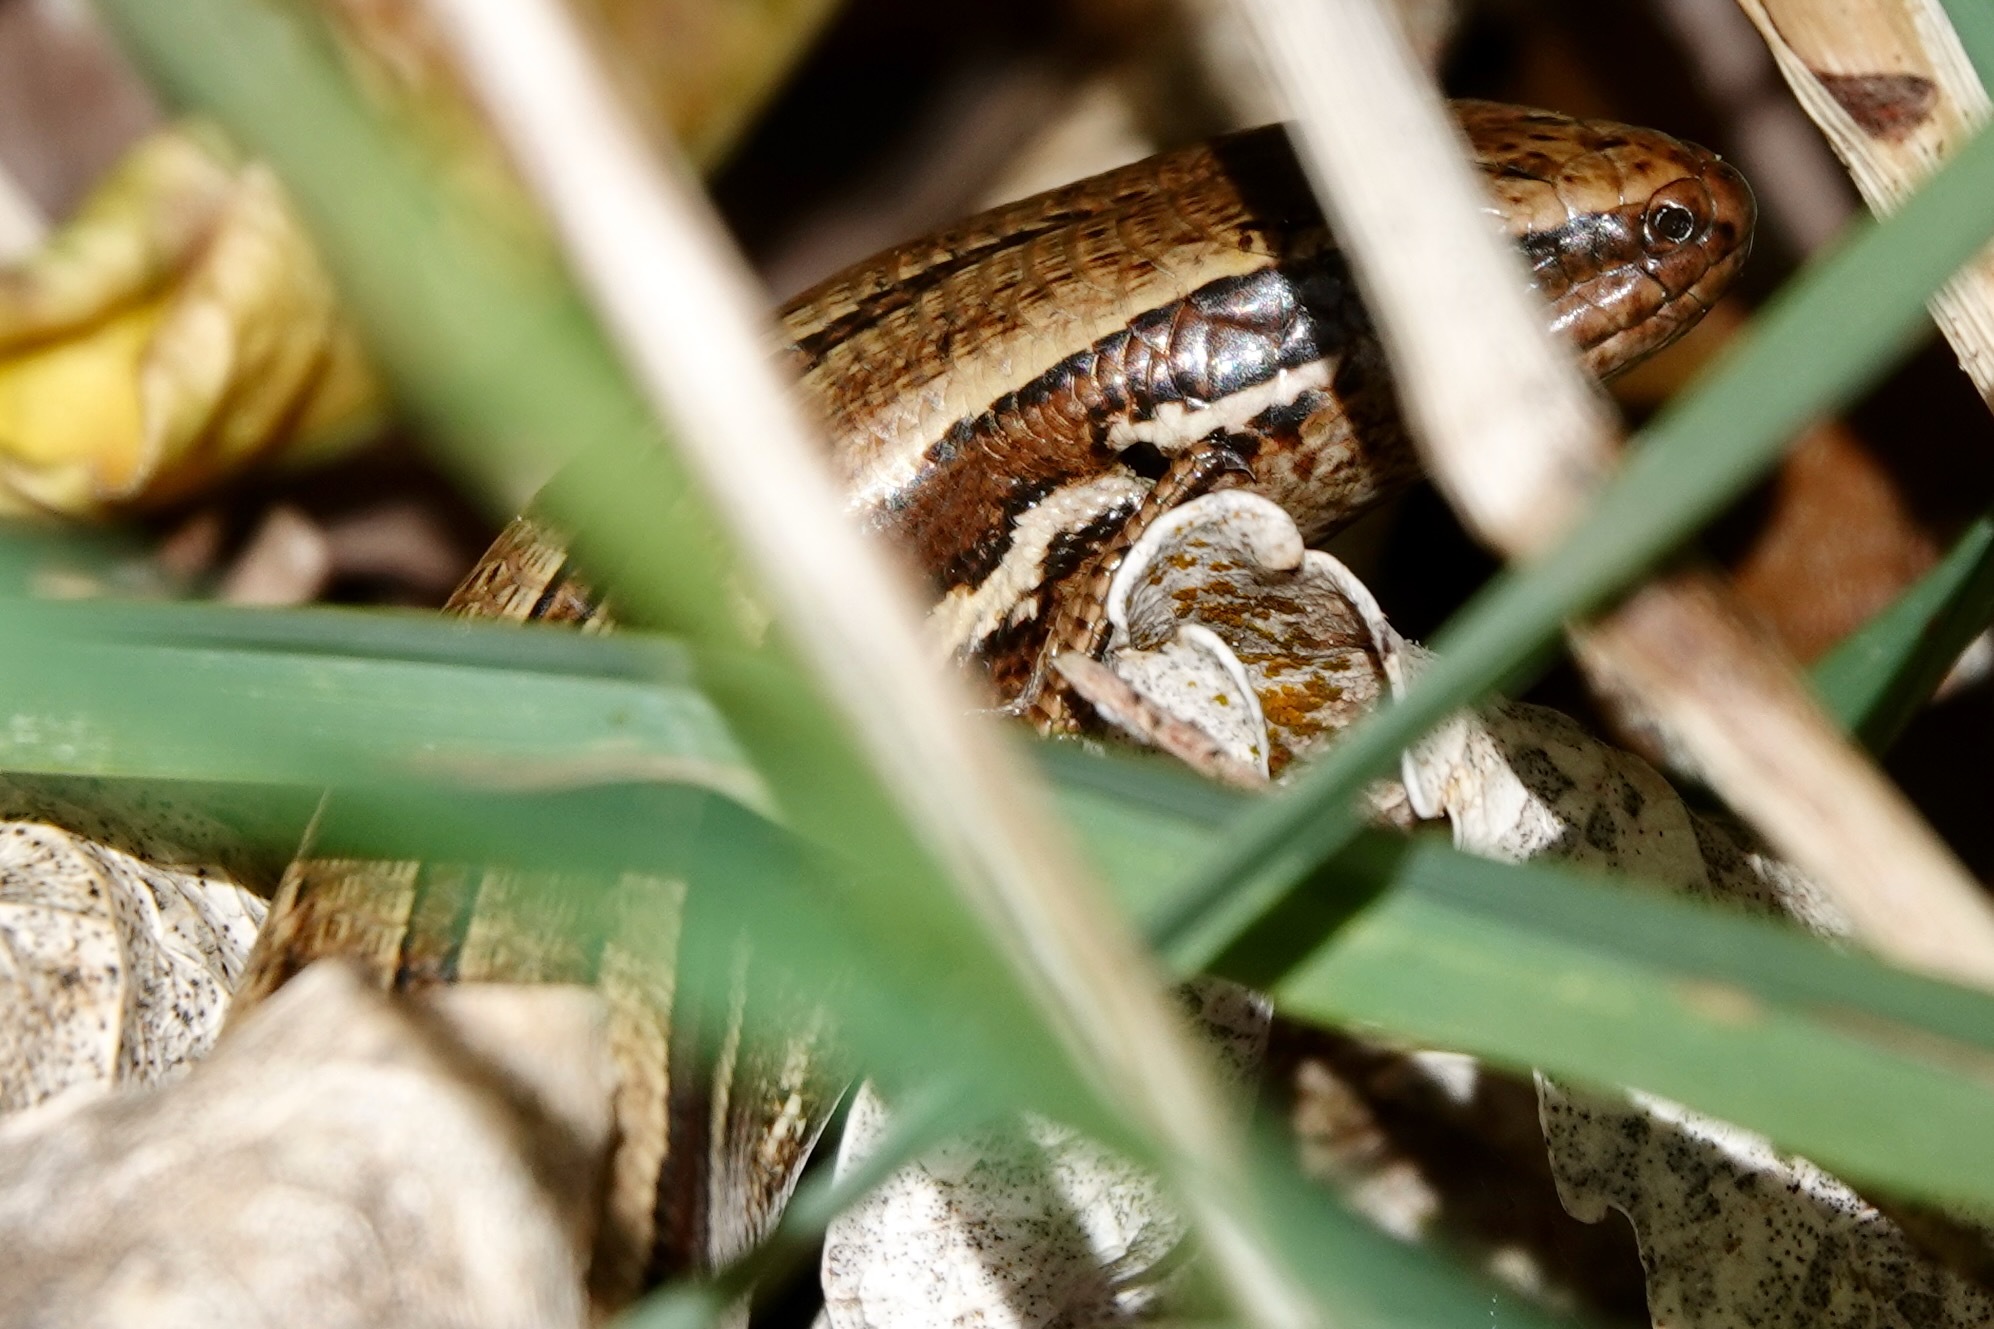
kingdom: Animalia
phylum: Chordata
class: Squamata
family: Scincidae
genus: Oligosoma
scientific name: Oligosoma polychroma
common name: Common new zealand skink
